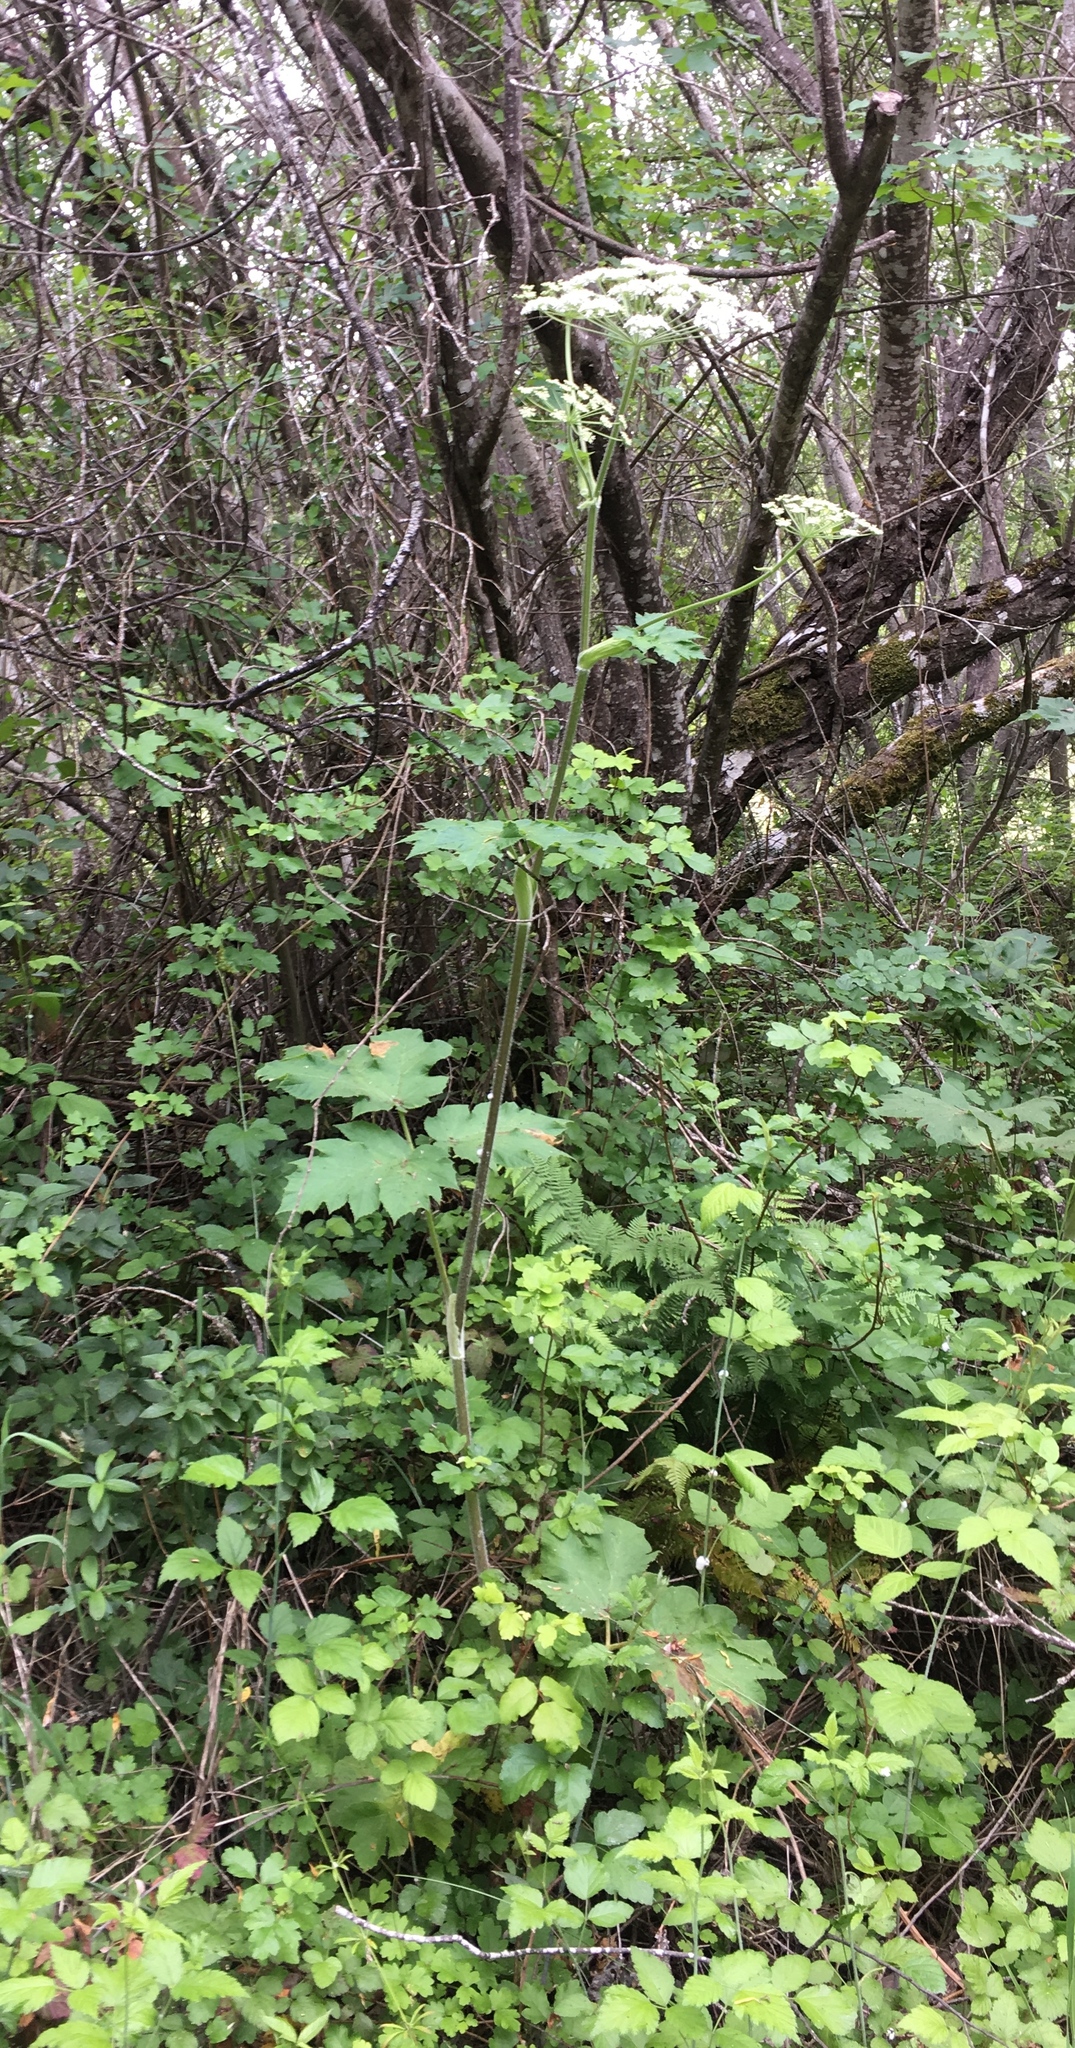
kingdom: Plantae
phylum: Tracheophyta
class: Magnoliopsida
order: Apiales
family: Apiaceae
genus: Heracleum
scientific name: Heracleum maximum
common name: American cow parsnip
